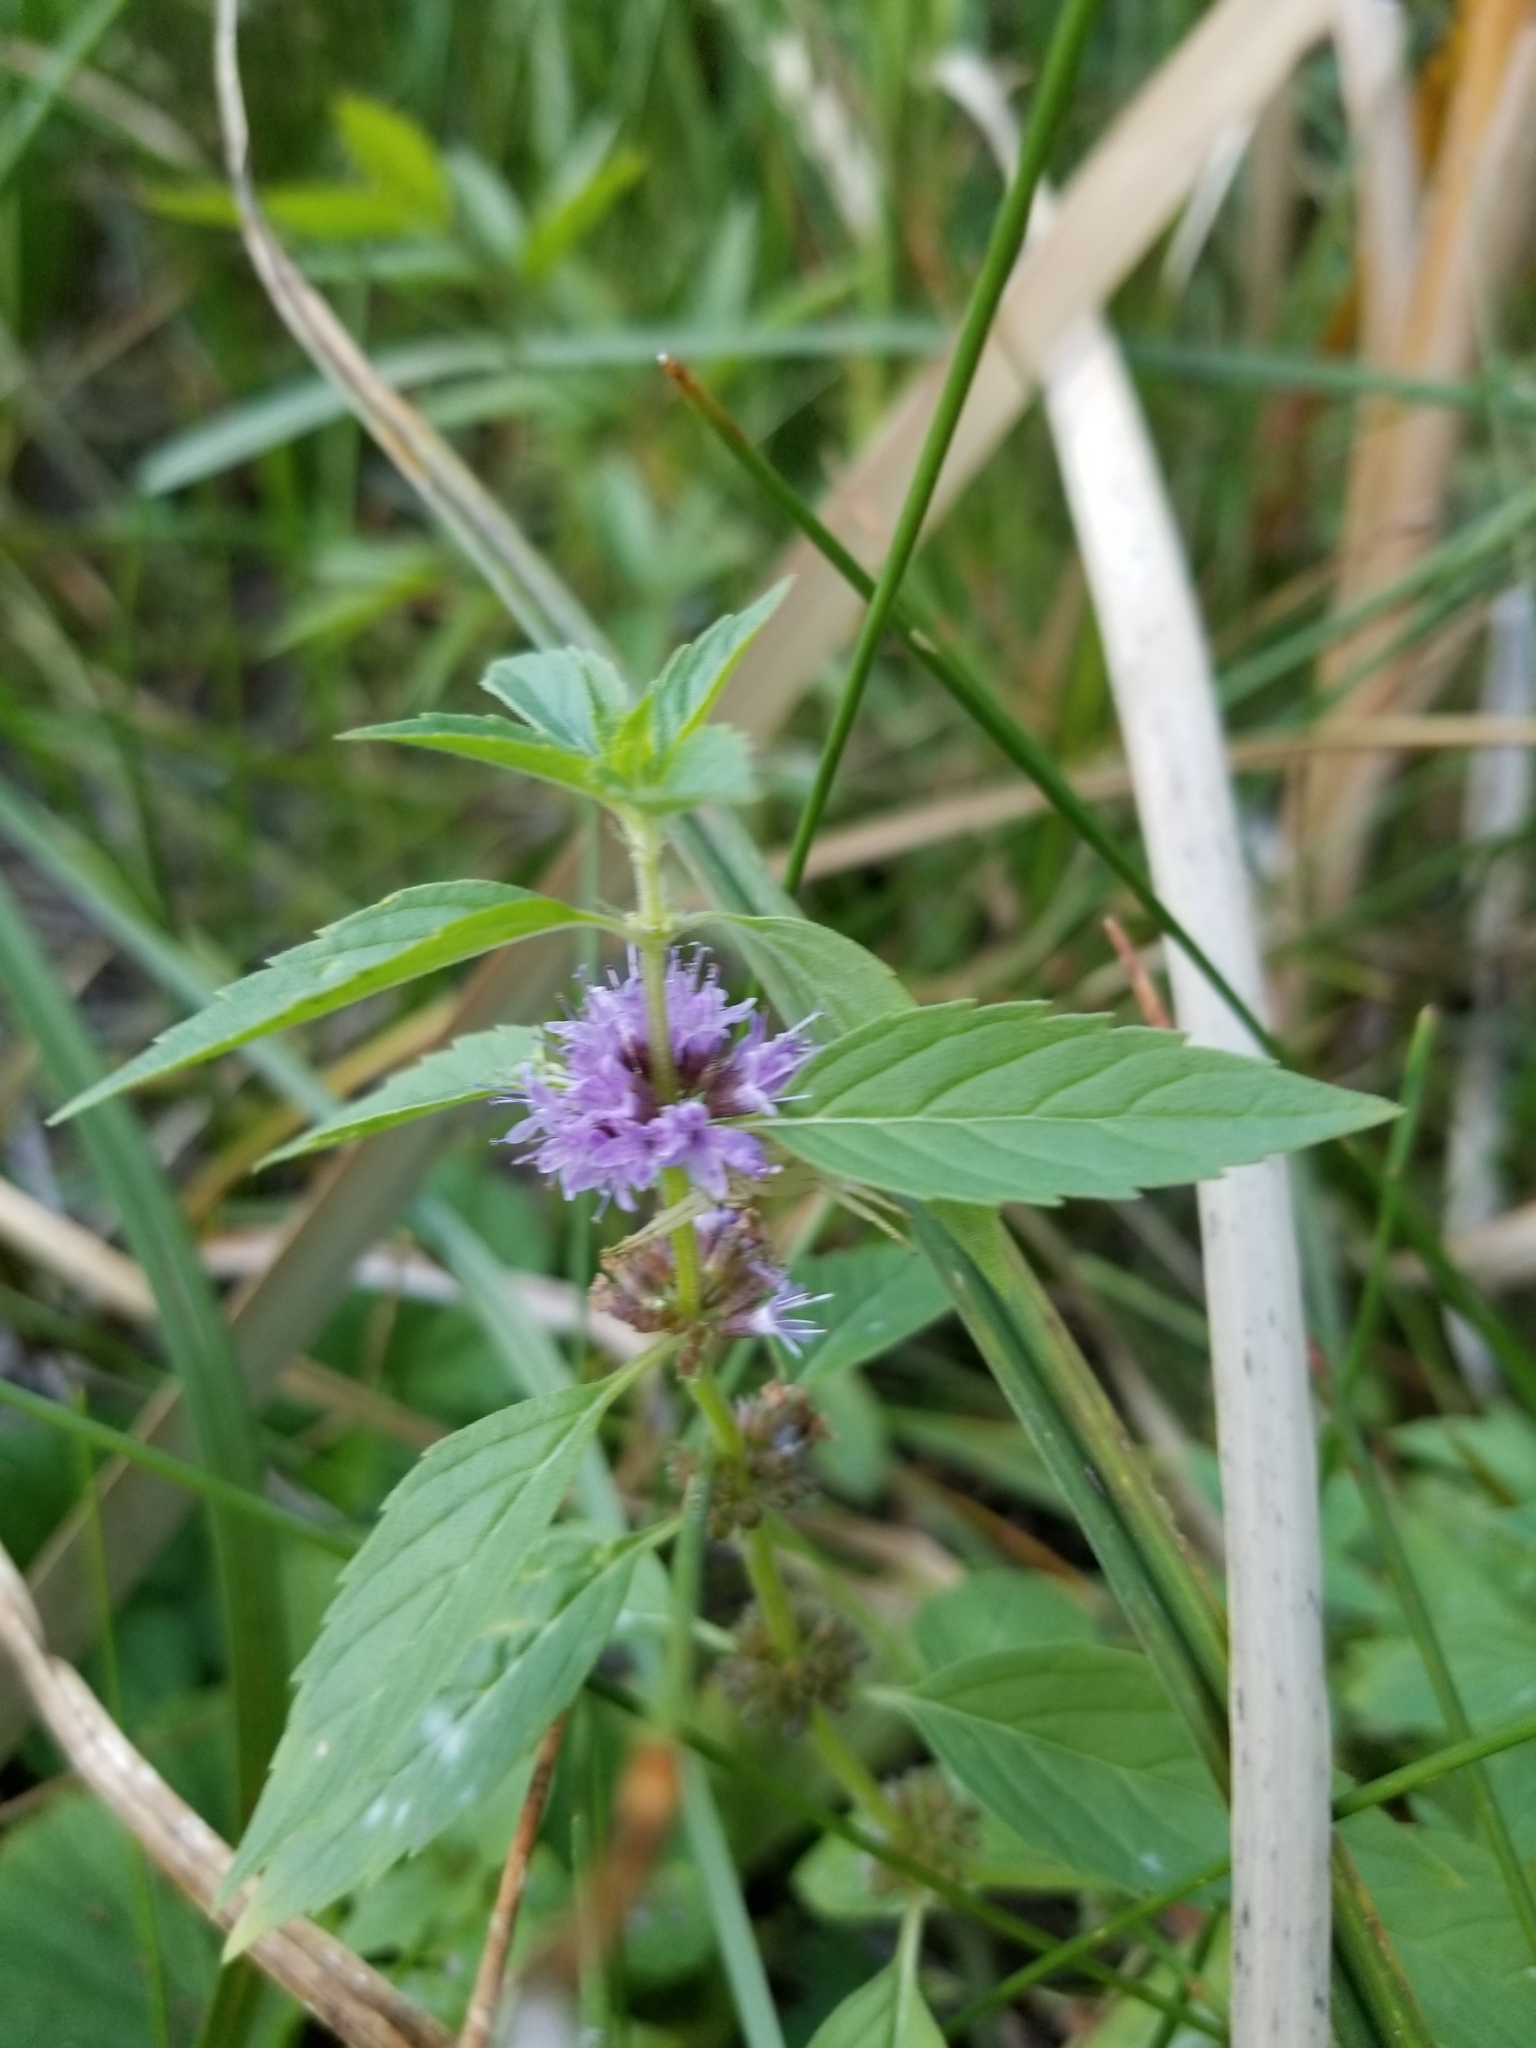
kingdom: Plantae
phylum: Tracheophyta
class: Magnoliopsida
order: Lamiales
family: Lamiaceae
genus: Mentha
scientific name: Mentha canadensis
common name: American corn mint
